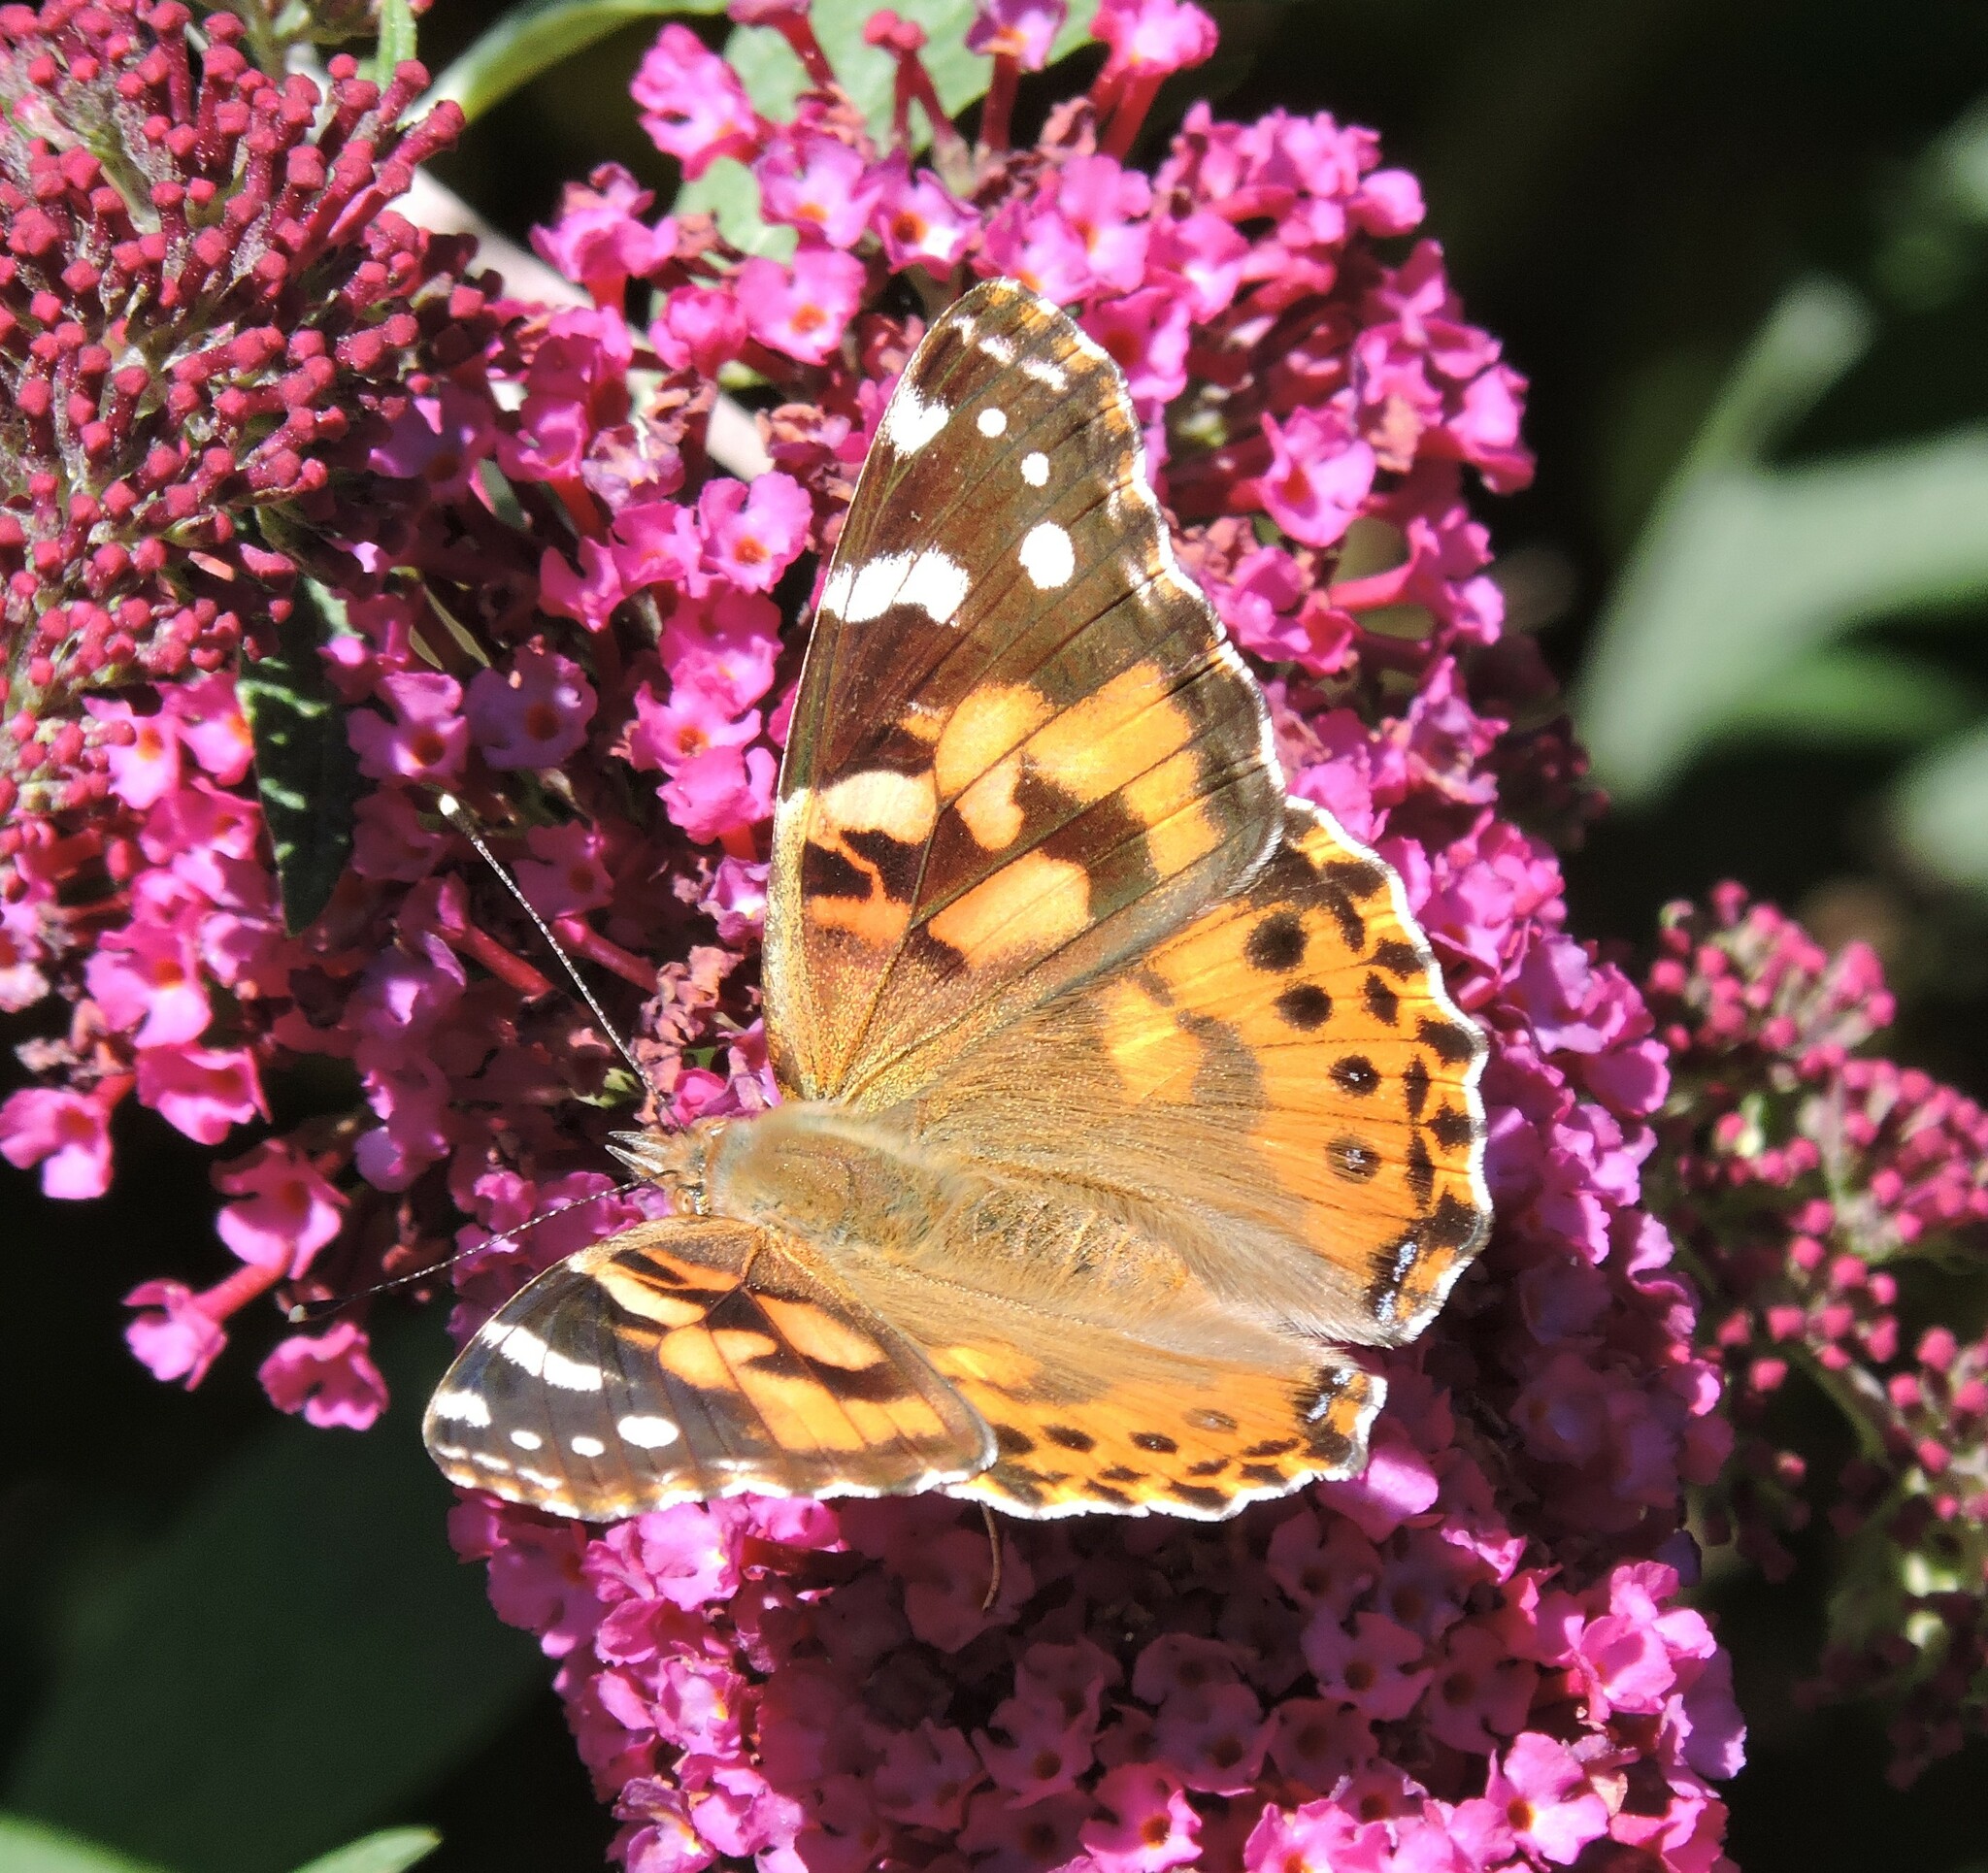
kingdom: Animalia
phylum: Arthropoda
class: Insecta
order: Lepidoptera
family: Nymphalidae
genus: Vanessa
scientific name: Vanessa cardui
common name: Painted lady
